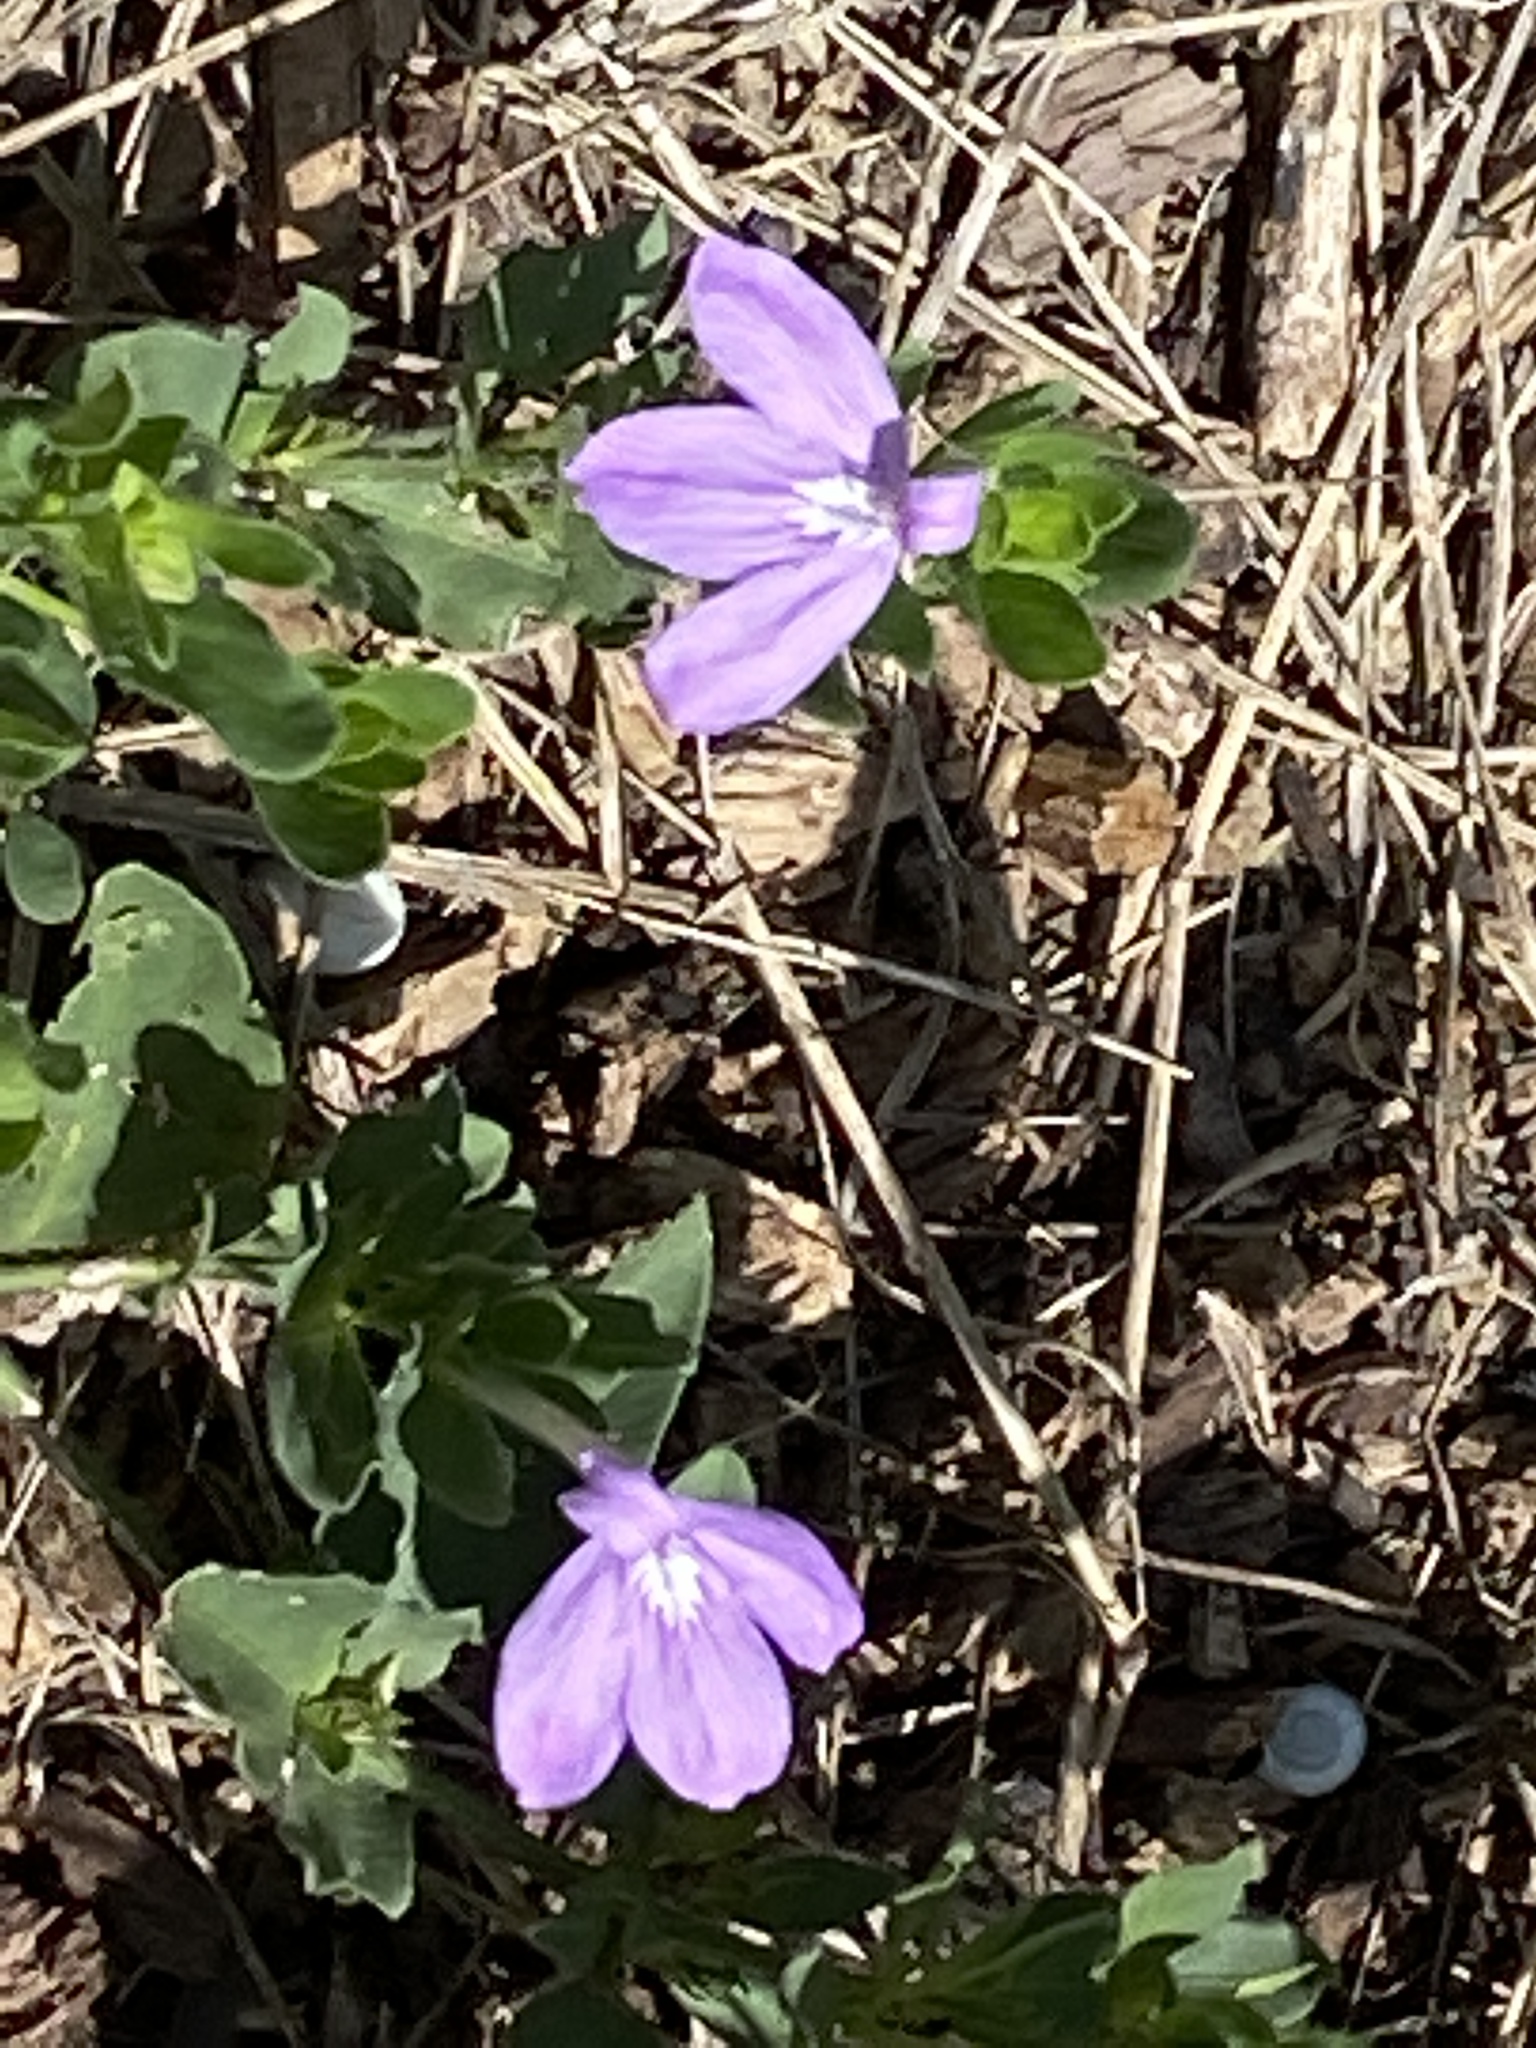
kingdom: Plantae
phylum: Tracheophyta
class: Magnoliopsida
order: Lamiales
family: Acanthaceae
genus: Justicia
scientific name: Justicia pilosella
